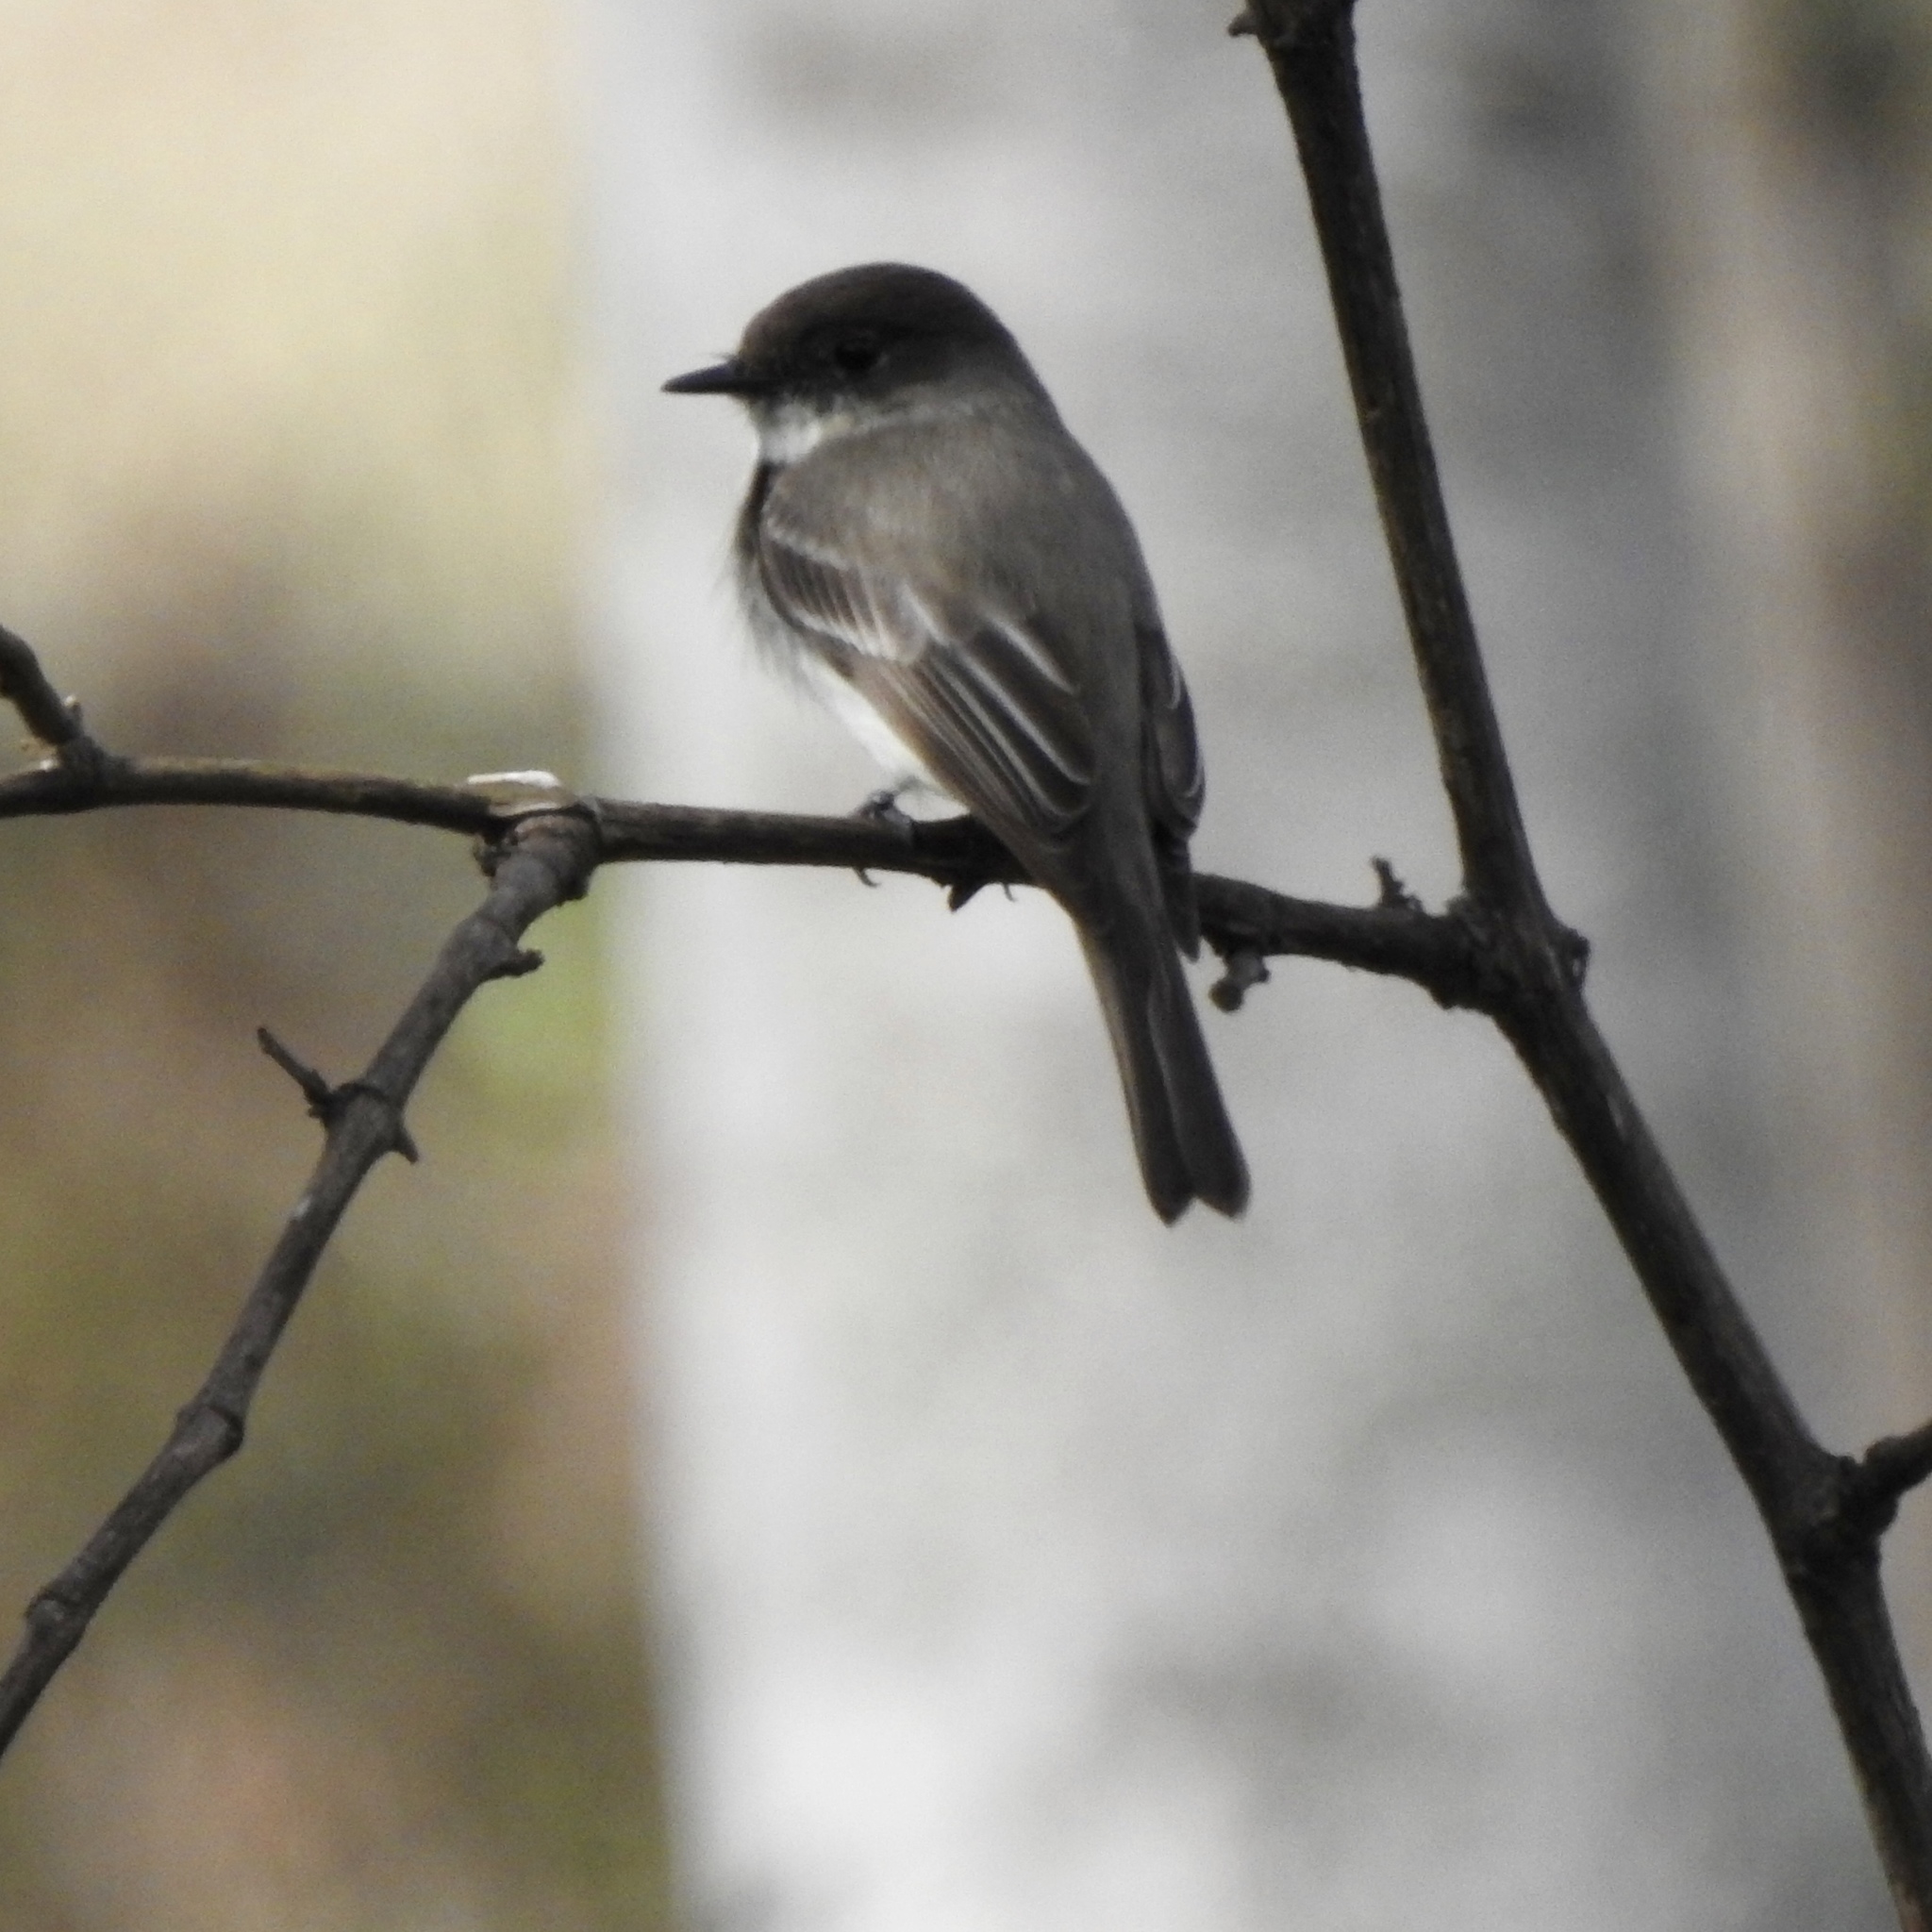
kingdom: Animalia
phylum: Chordata
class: Aves
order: Passeriformes
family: Tyrannidae
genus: Sayornis
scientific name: Sayornis phoebe
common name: Eastern phoebe
